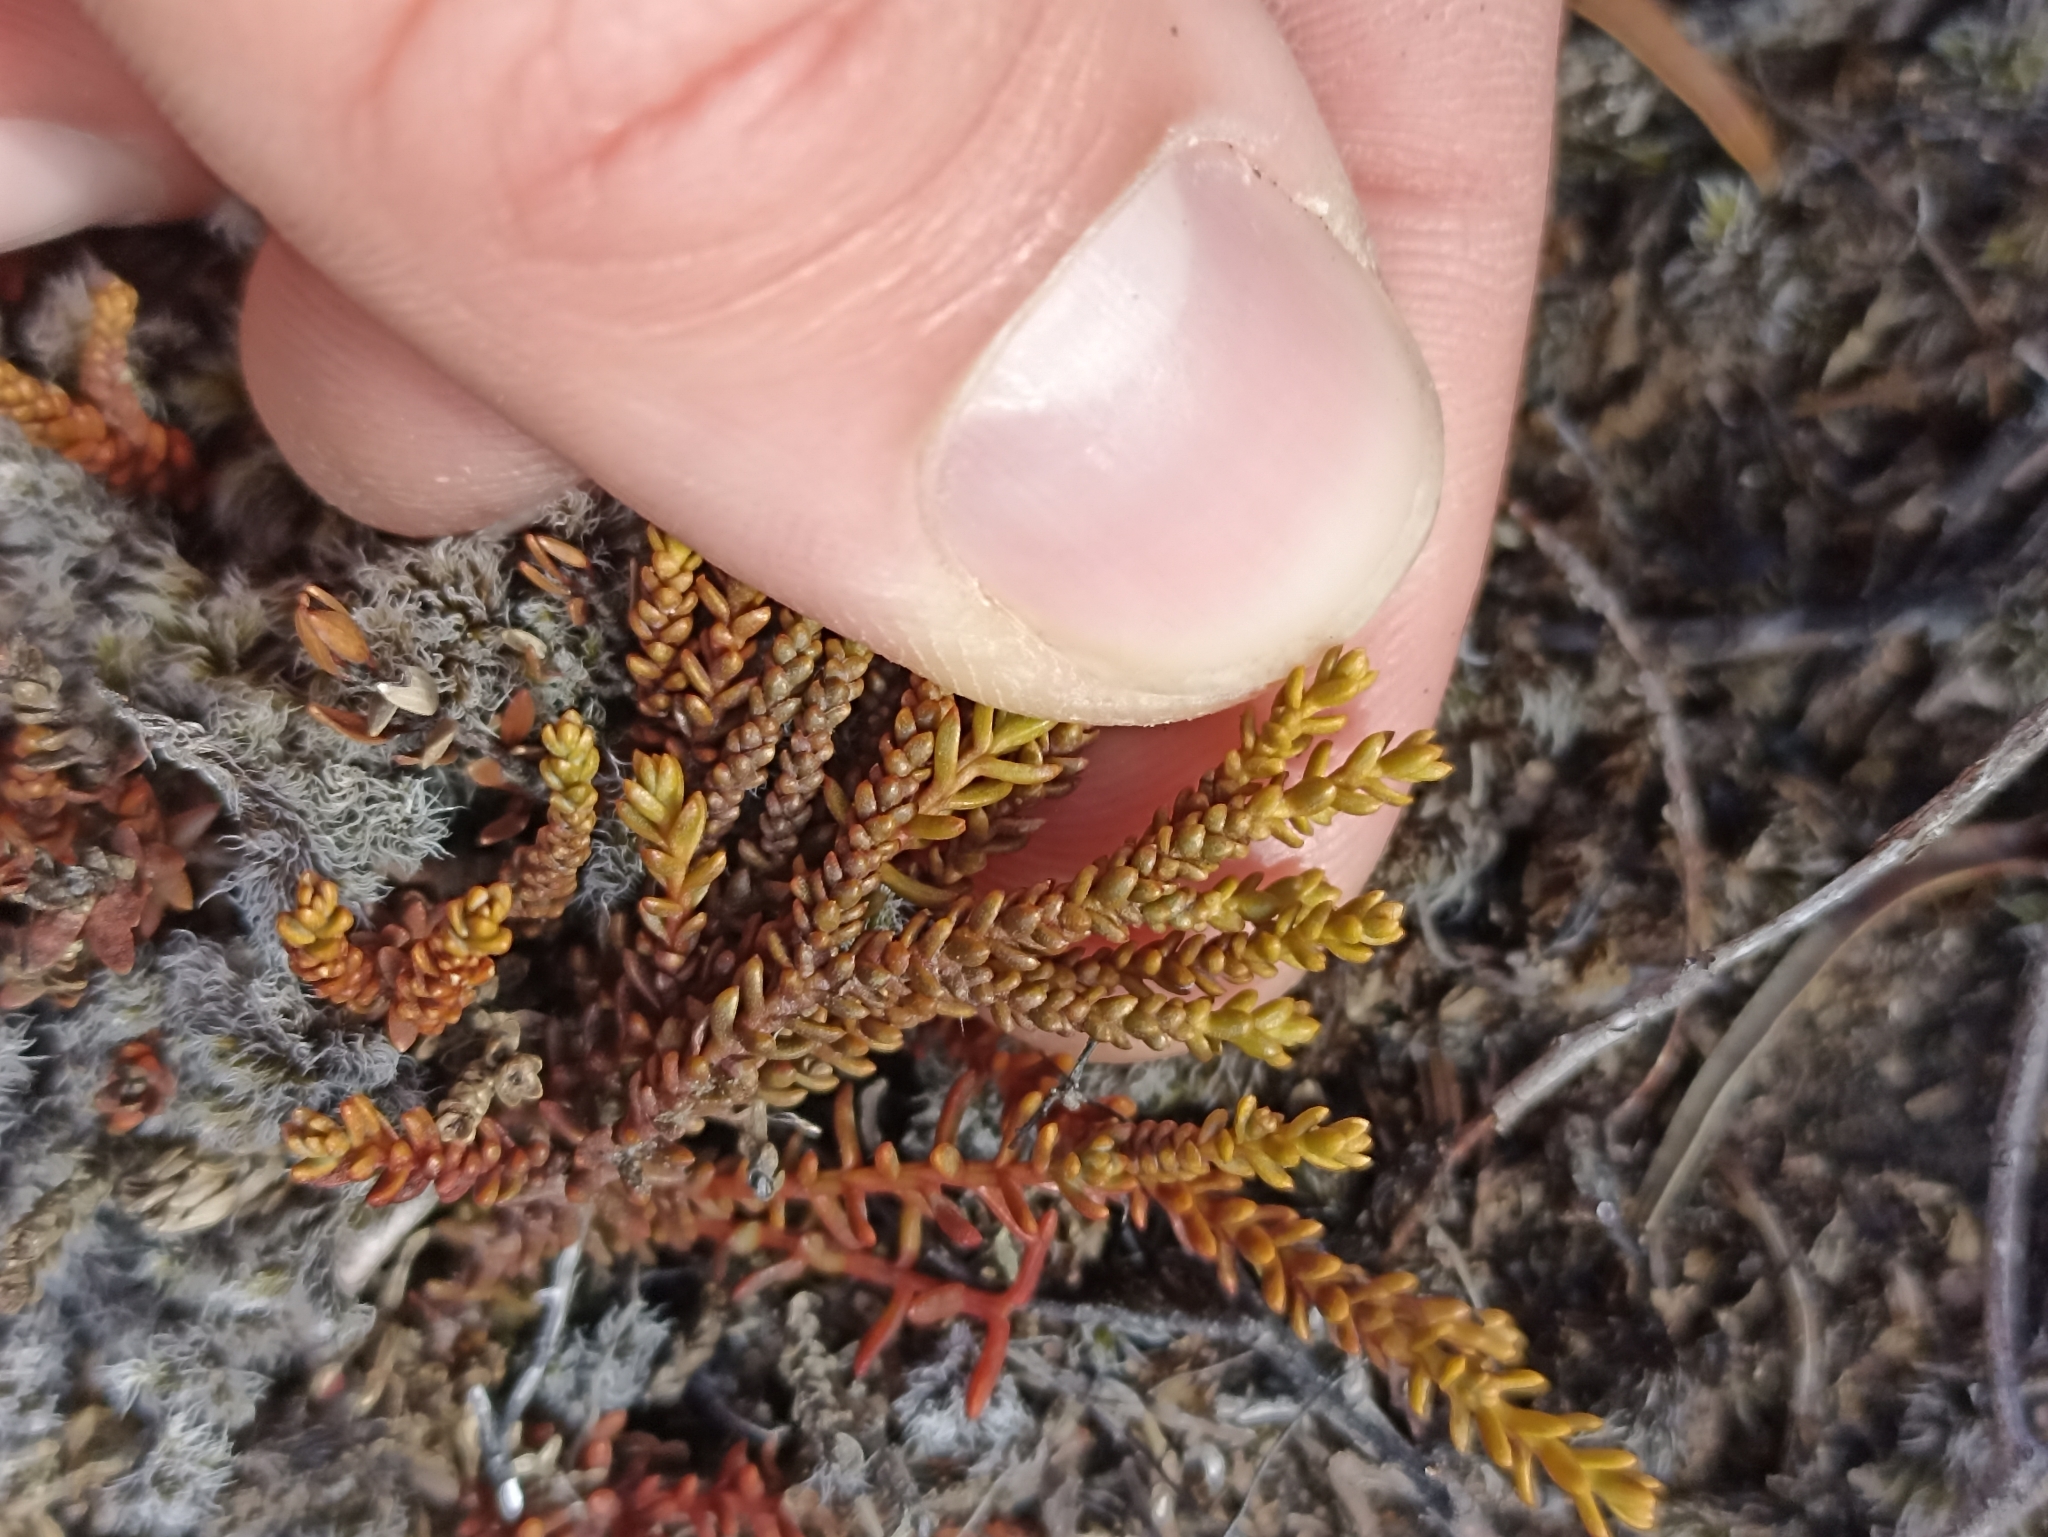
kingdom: Plantae
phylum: Tracheophyta
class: Pinopsida
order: Pinales
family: Podocarpaceae
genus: Lepidothamnus
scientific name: Lepidothamnus laxifolius
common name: Pygmy pine
